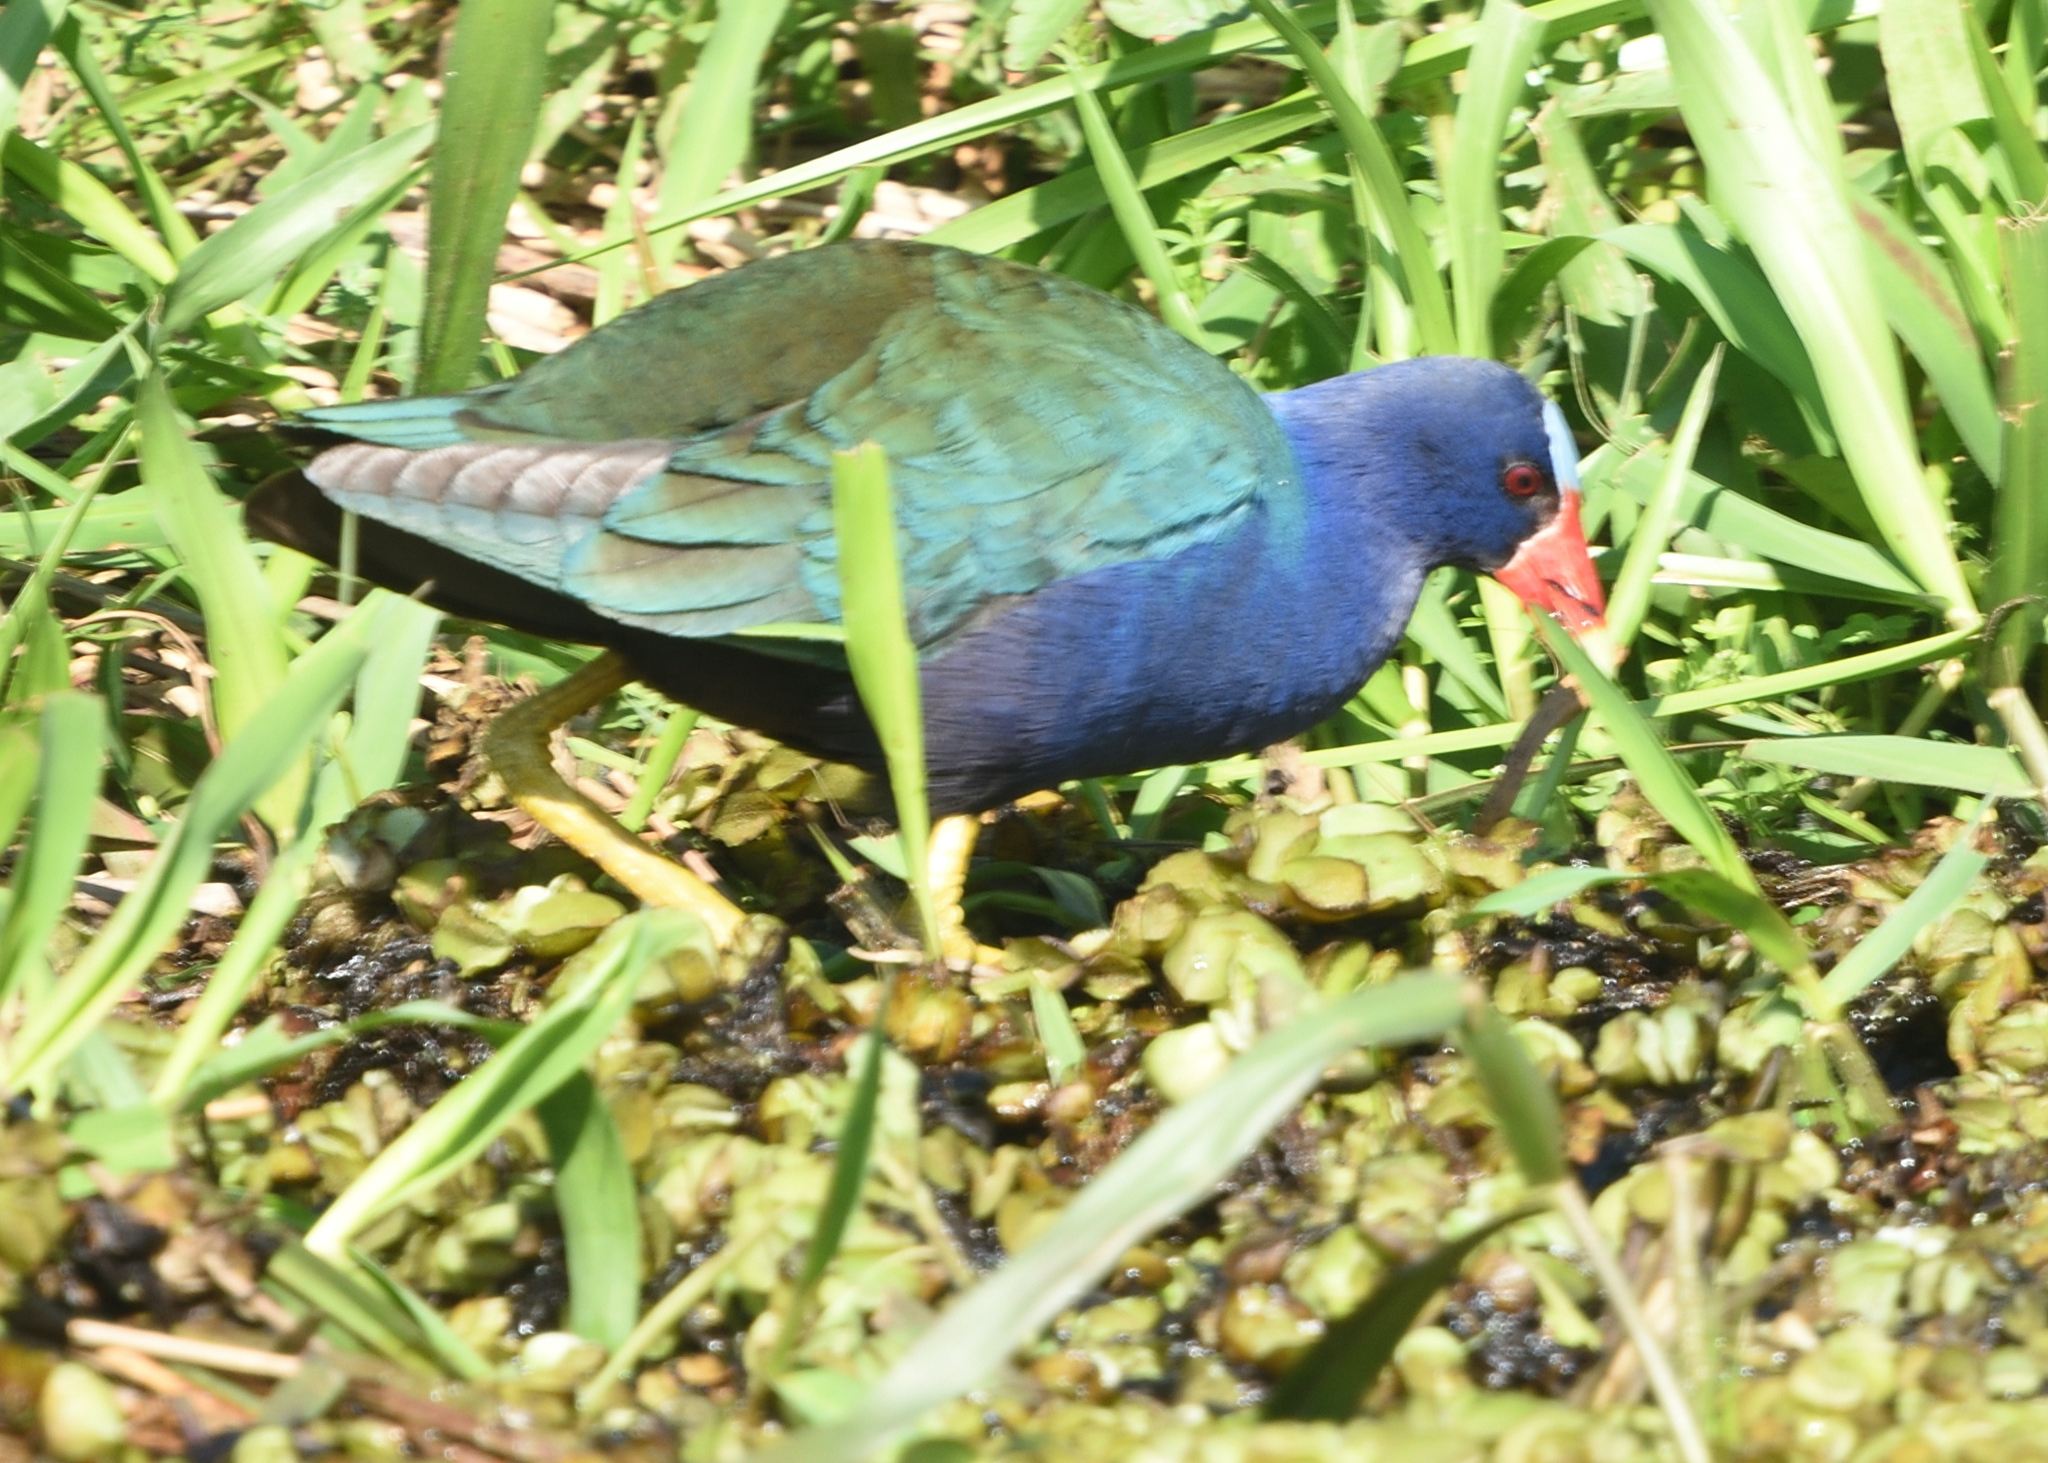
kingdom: Animalia
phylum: Chordata
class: Aves
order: Gruiformes
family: Rallidae
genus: Porphyrio
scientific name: Porphyrio martinica
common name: Purple gallinule
